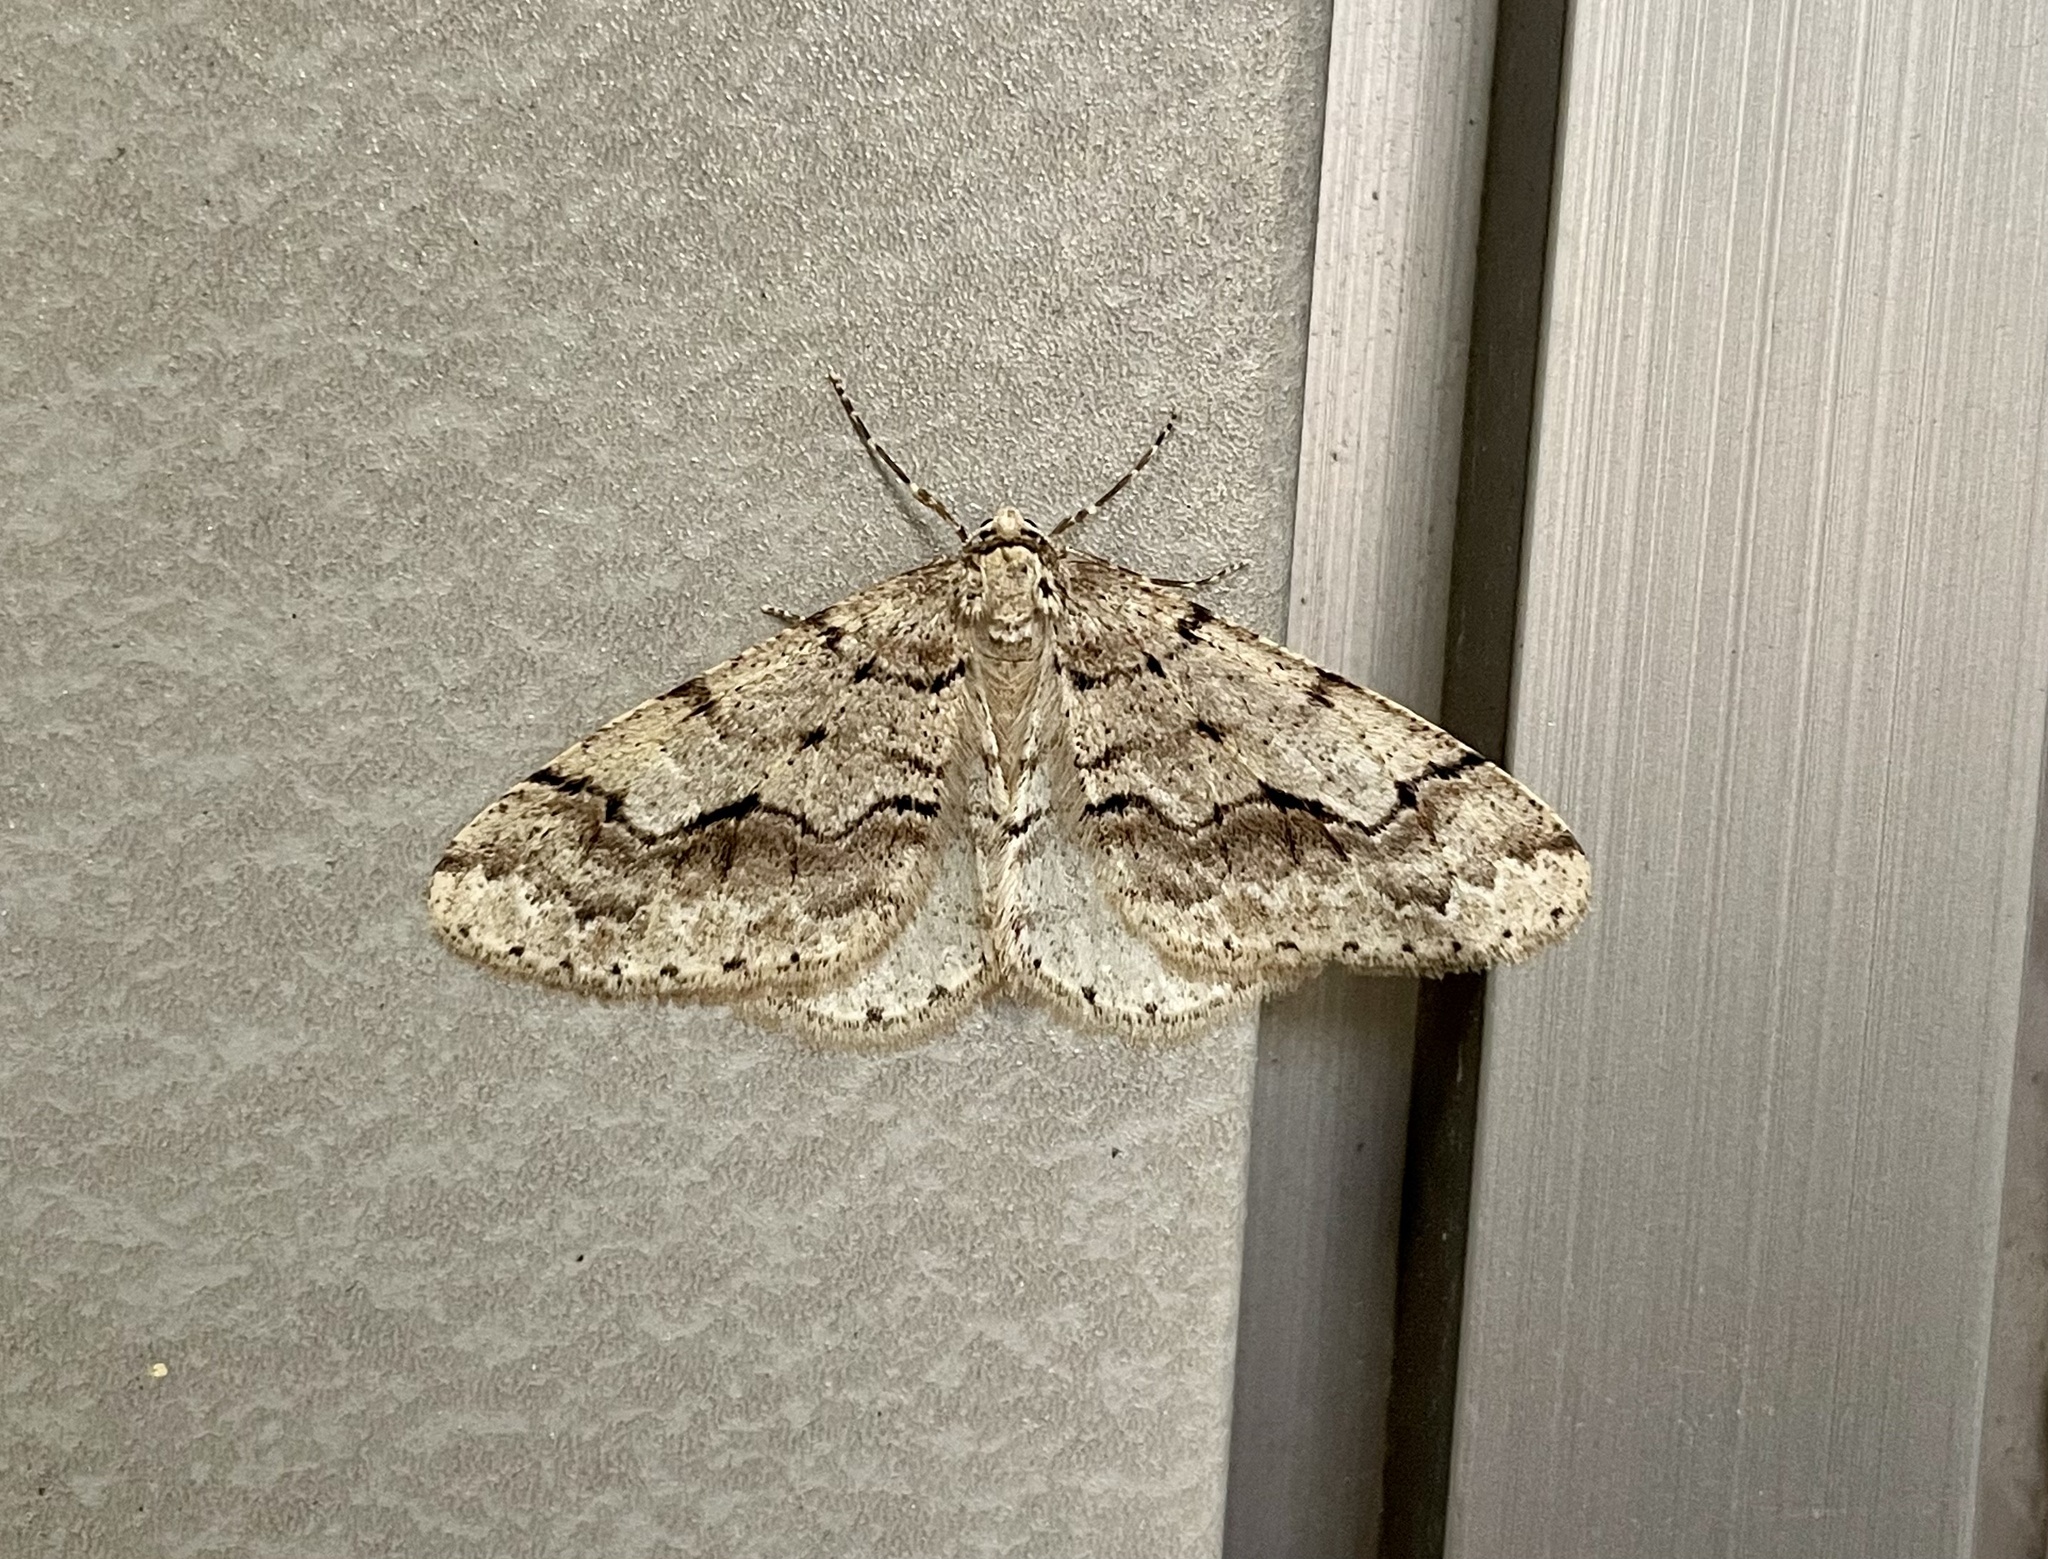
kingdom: Animalia
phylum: Arthropoda
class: Insecta
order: Lepidoptera
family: Geometridae
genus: Larerannis
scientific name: Larerannis miracula
